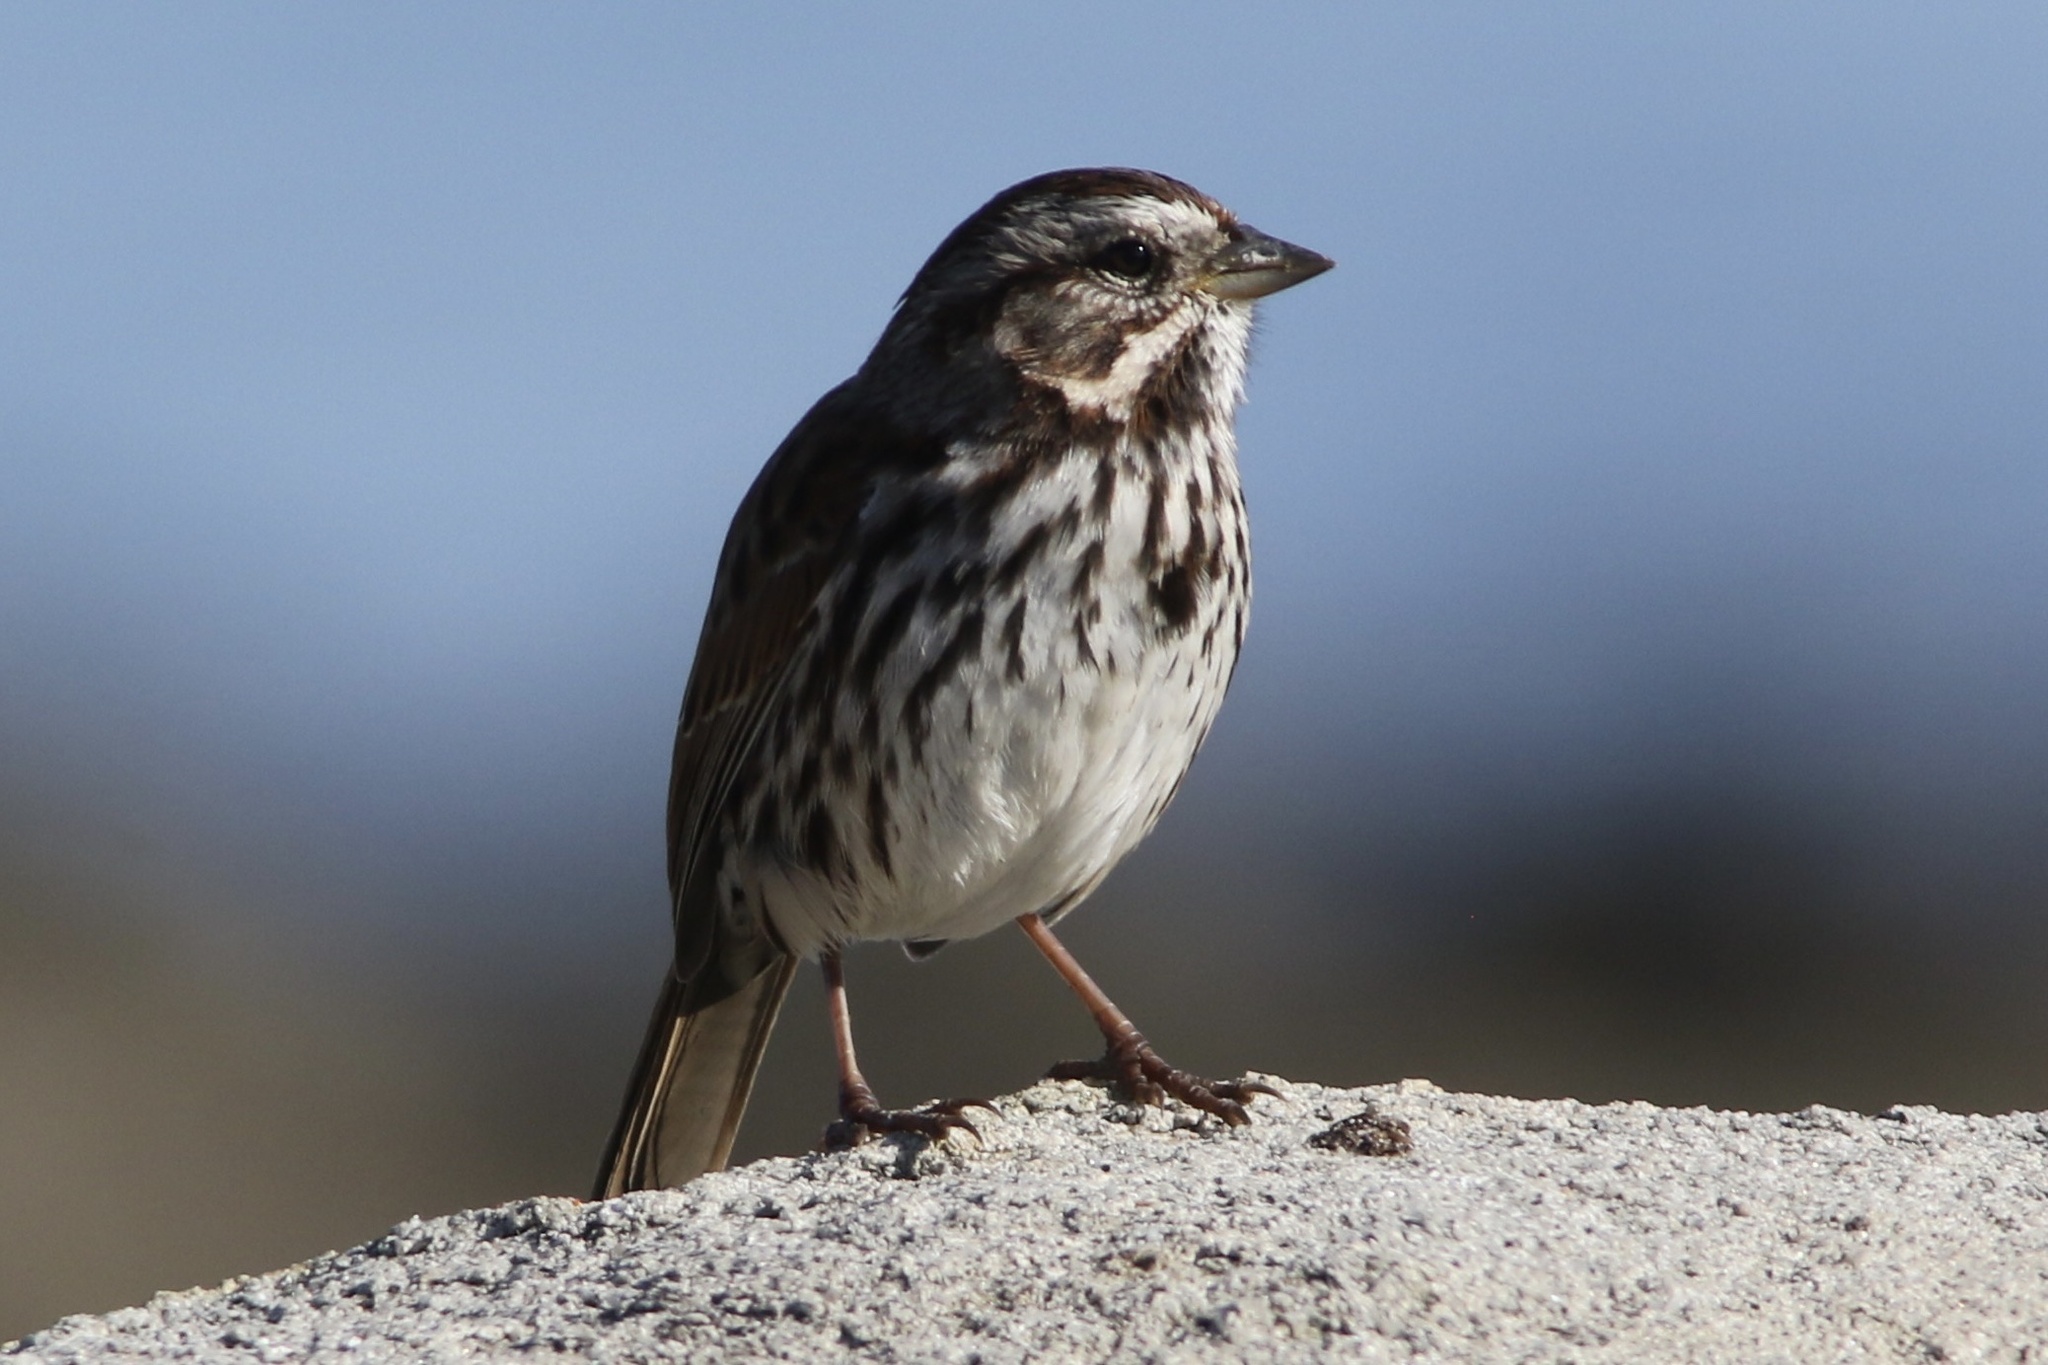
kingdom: Animalia
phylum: Chordata
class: Aves
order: Passeriformes
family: Passerellidae
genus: Melospiza
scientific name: Melospiza melodia
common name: Song sparrow
